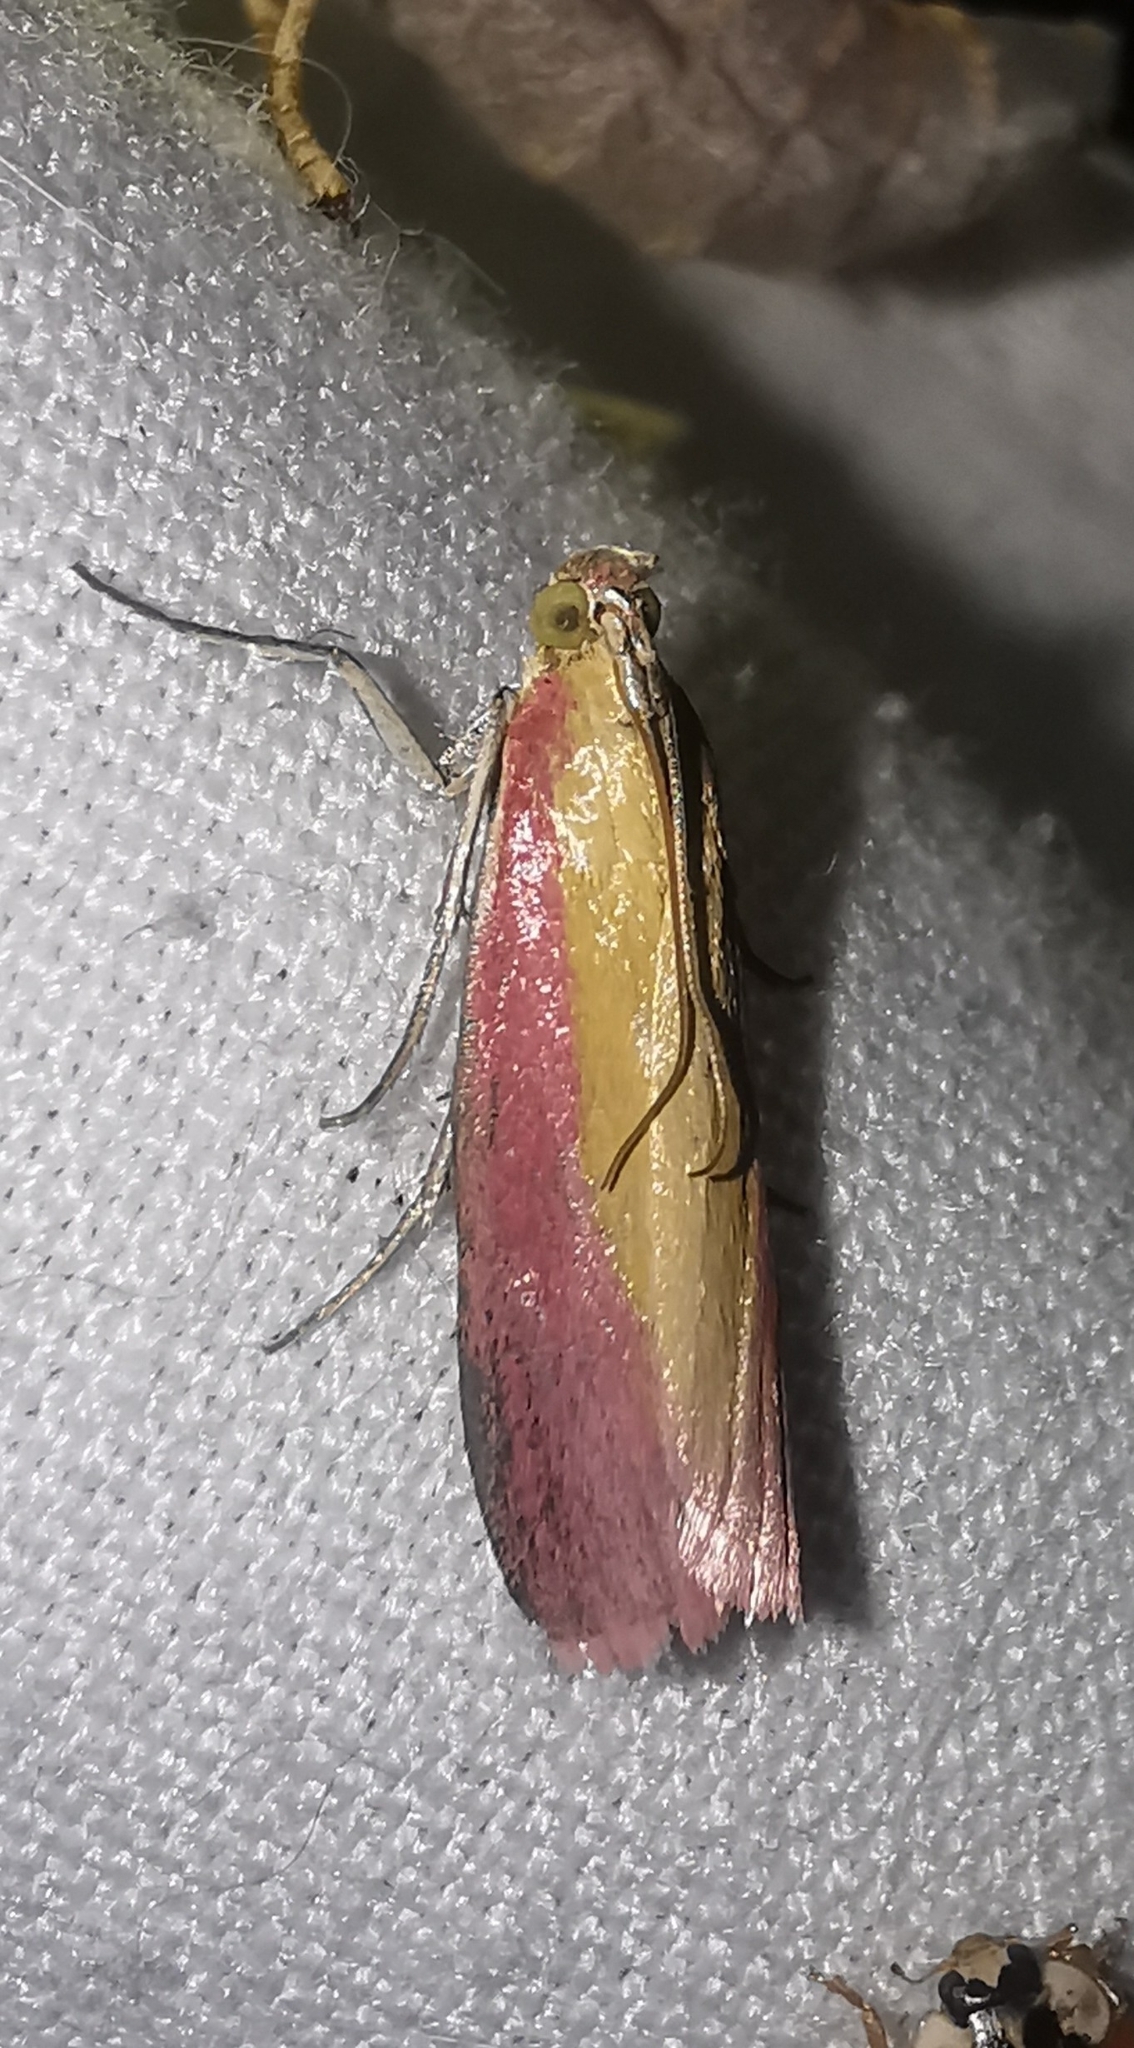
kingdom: Animalia
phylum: Arthropoda
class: Insecta
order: Lepidoptera
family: Pyralidae
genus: Oncocera
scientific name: Oncocera semirubella
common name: Rosy-striped knot-horn
